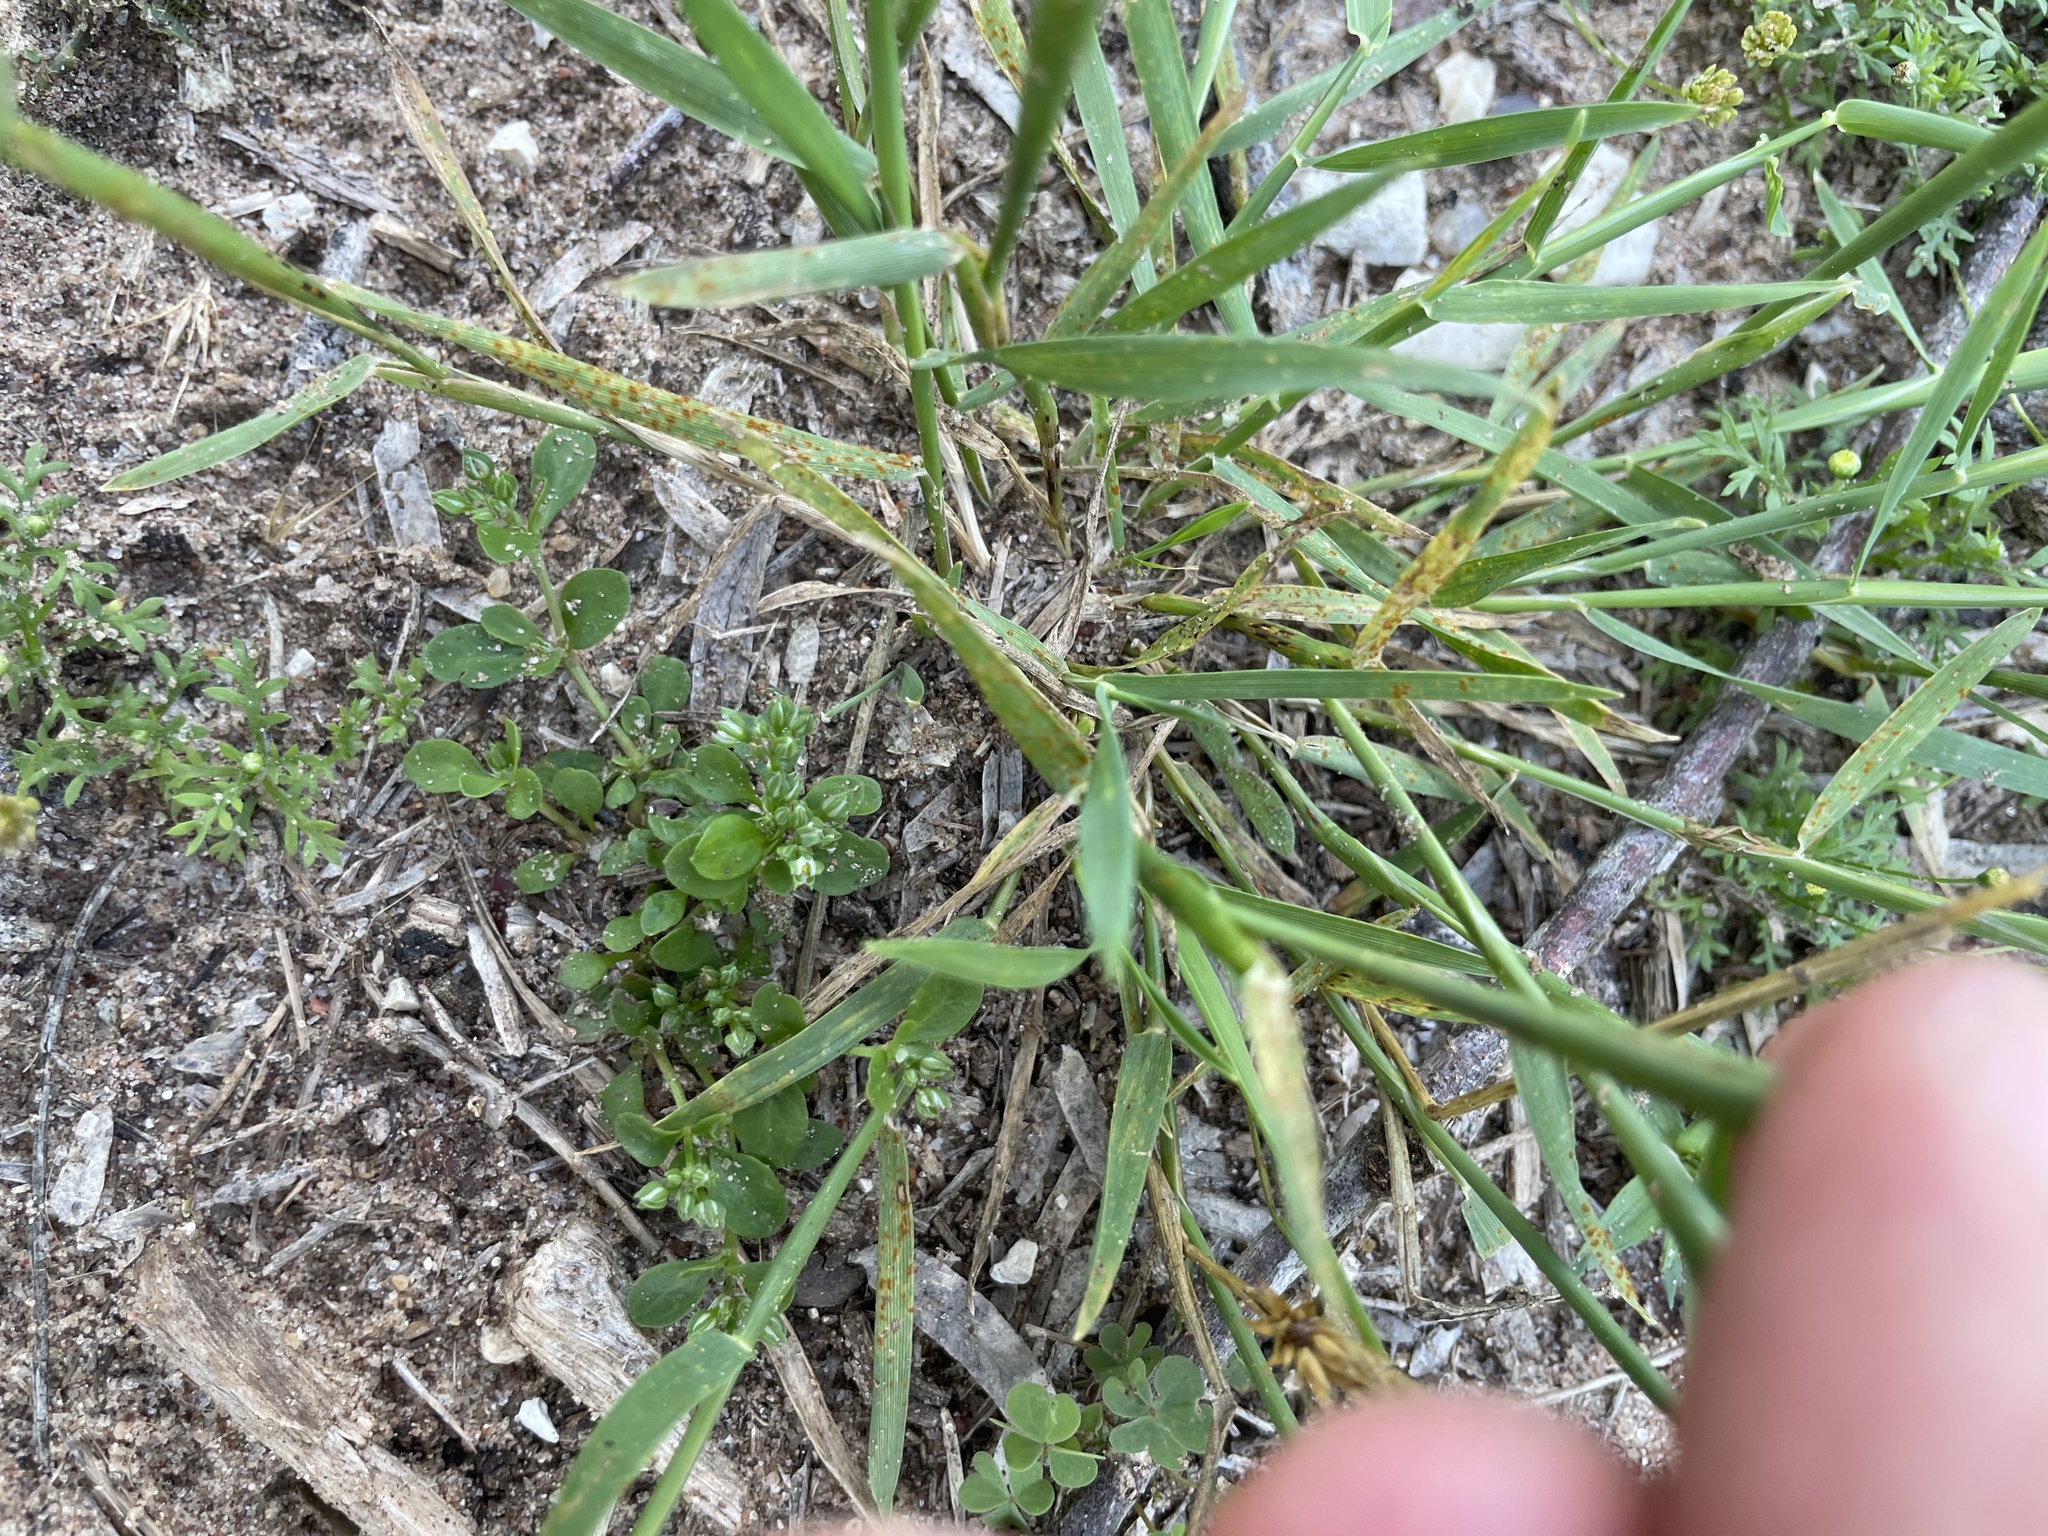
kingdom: Plantae
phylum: Tracheophyta
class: Liliopsida
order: Poales
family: Poaceae
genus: Hordeum
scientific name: Hordeum pusillum
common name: Little barley
